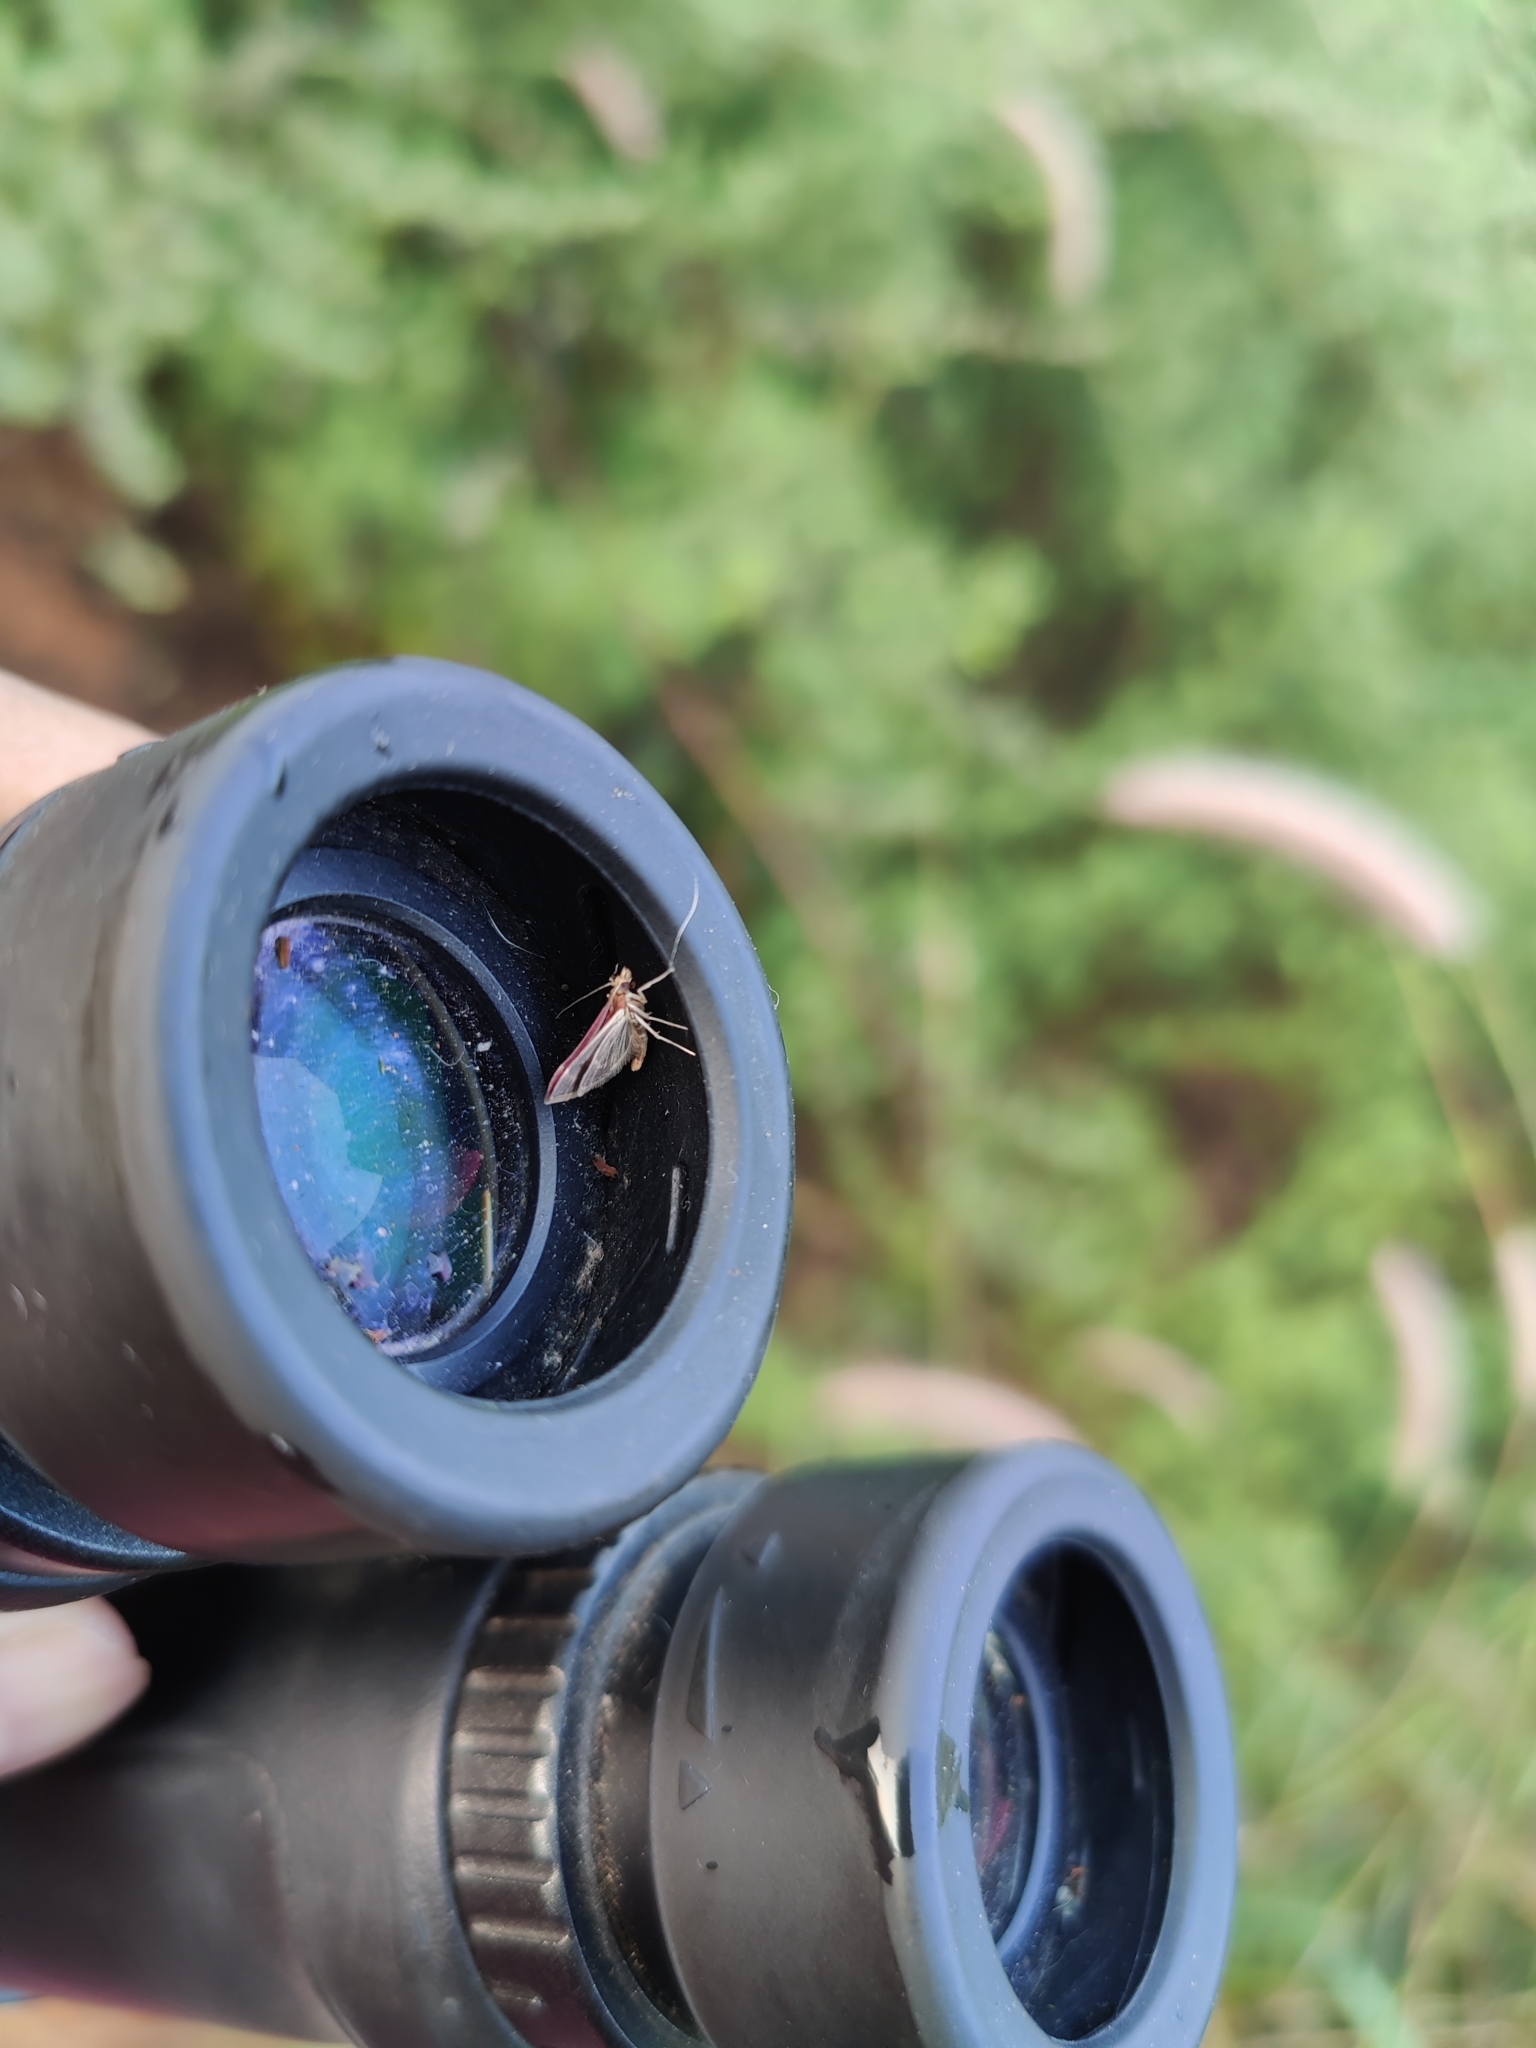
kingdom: Animalia
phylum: Arthropoda
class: Insecta
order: Lepidoptera
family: Crambidae
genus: Pyrausta
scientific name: Pyrausta signatalis
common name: Raspberry pyrausta moth
